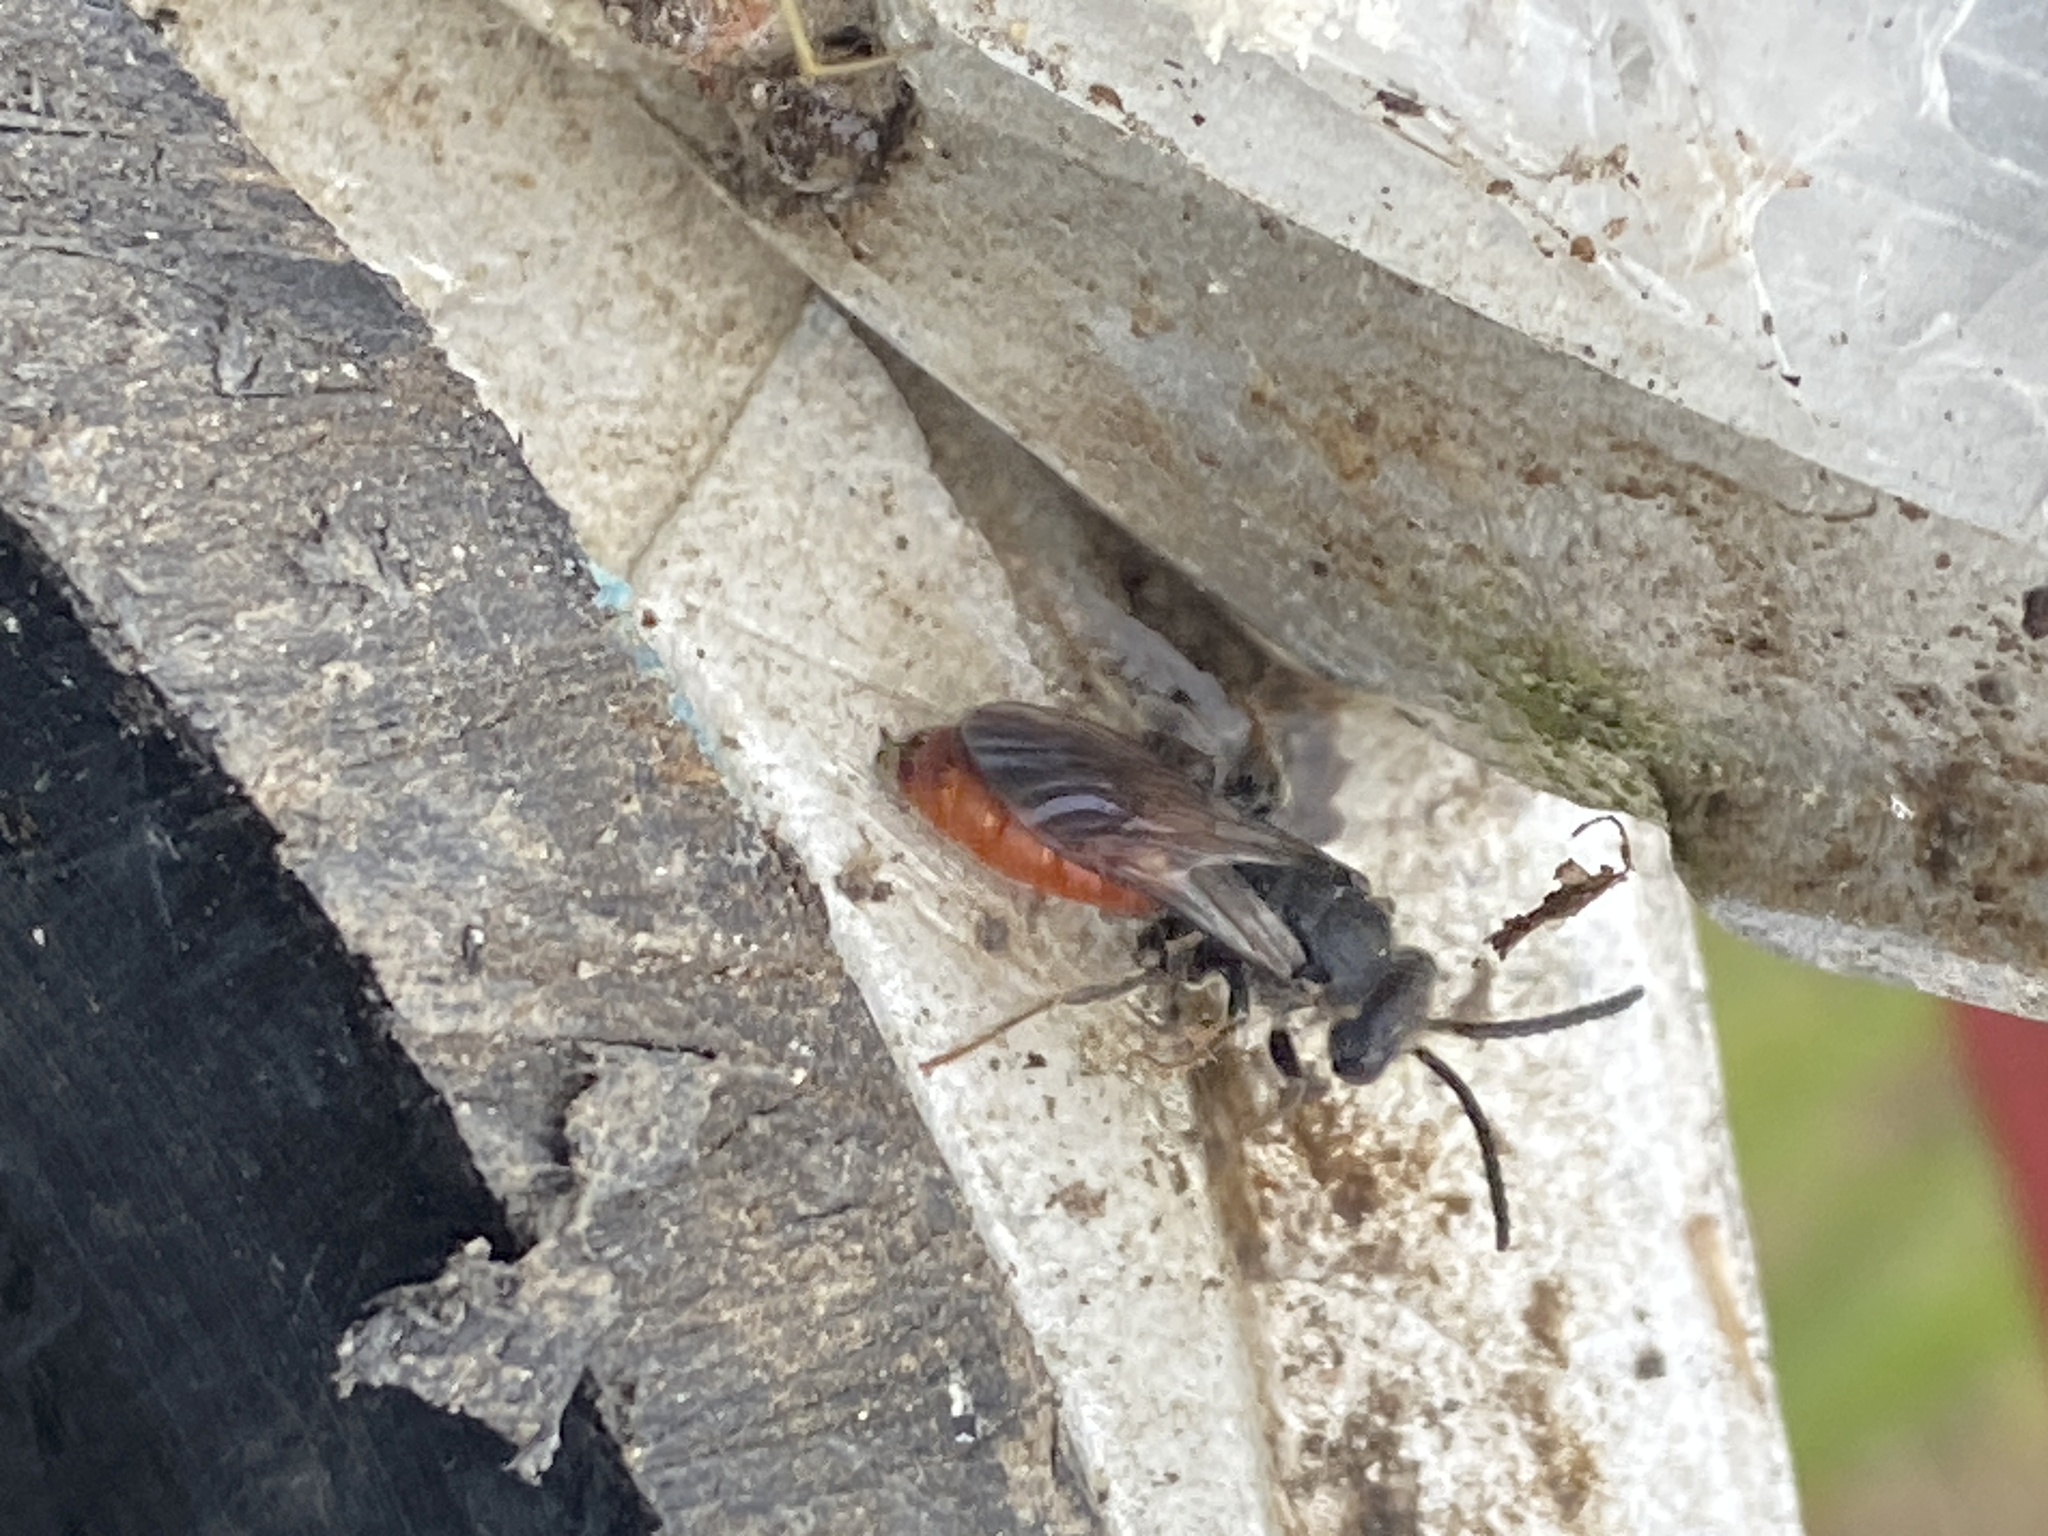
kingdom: Animalia
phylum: Arthropoda
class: Insecta
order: Hymenoptera
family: Halictidae
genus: Sphecodes
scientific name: Sphecodes albilabris
